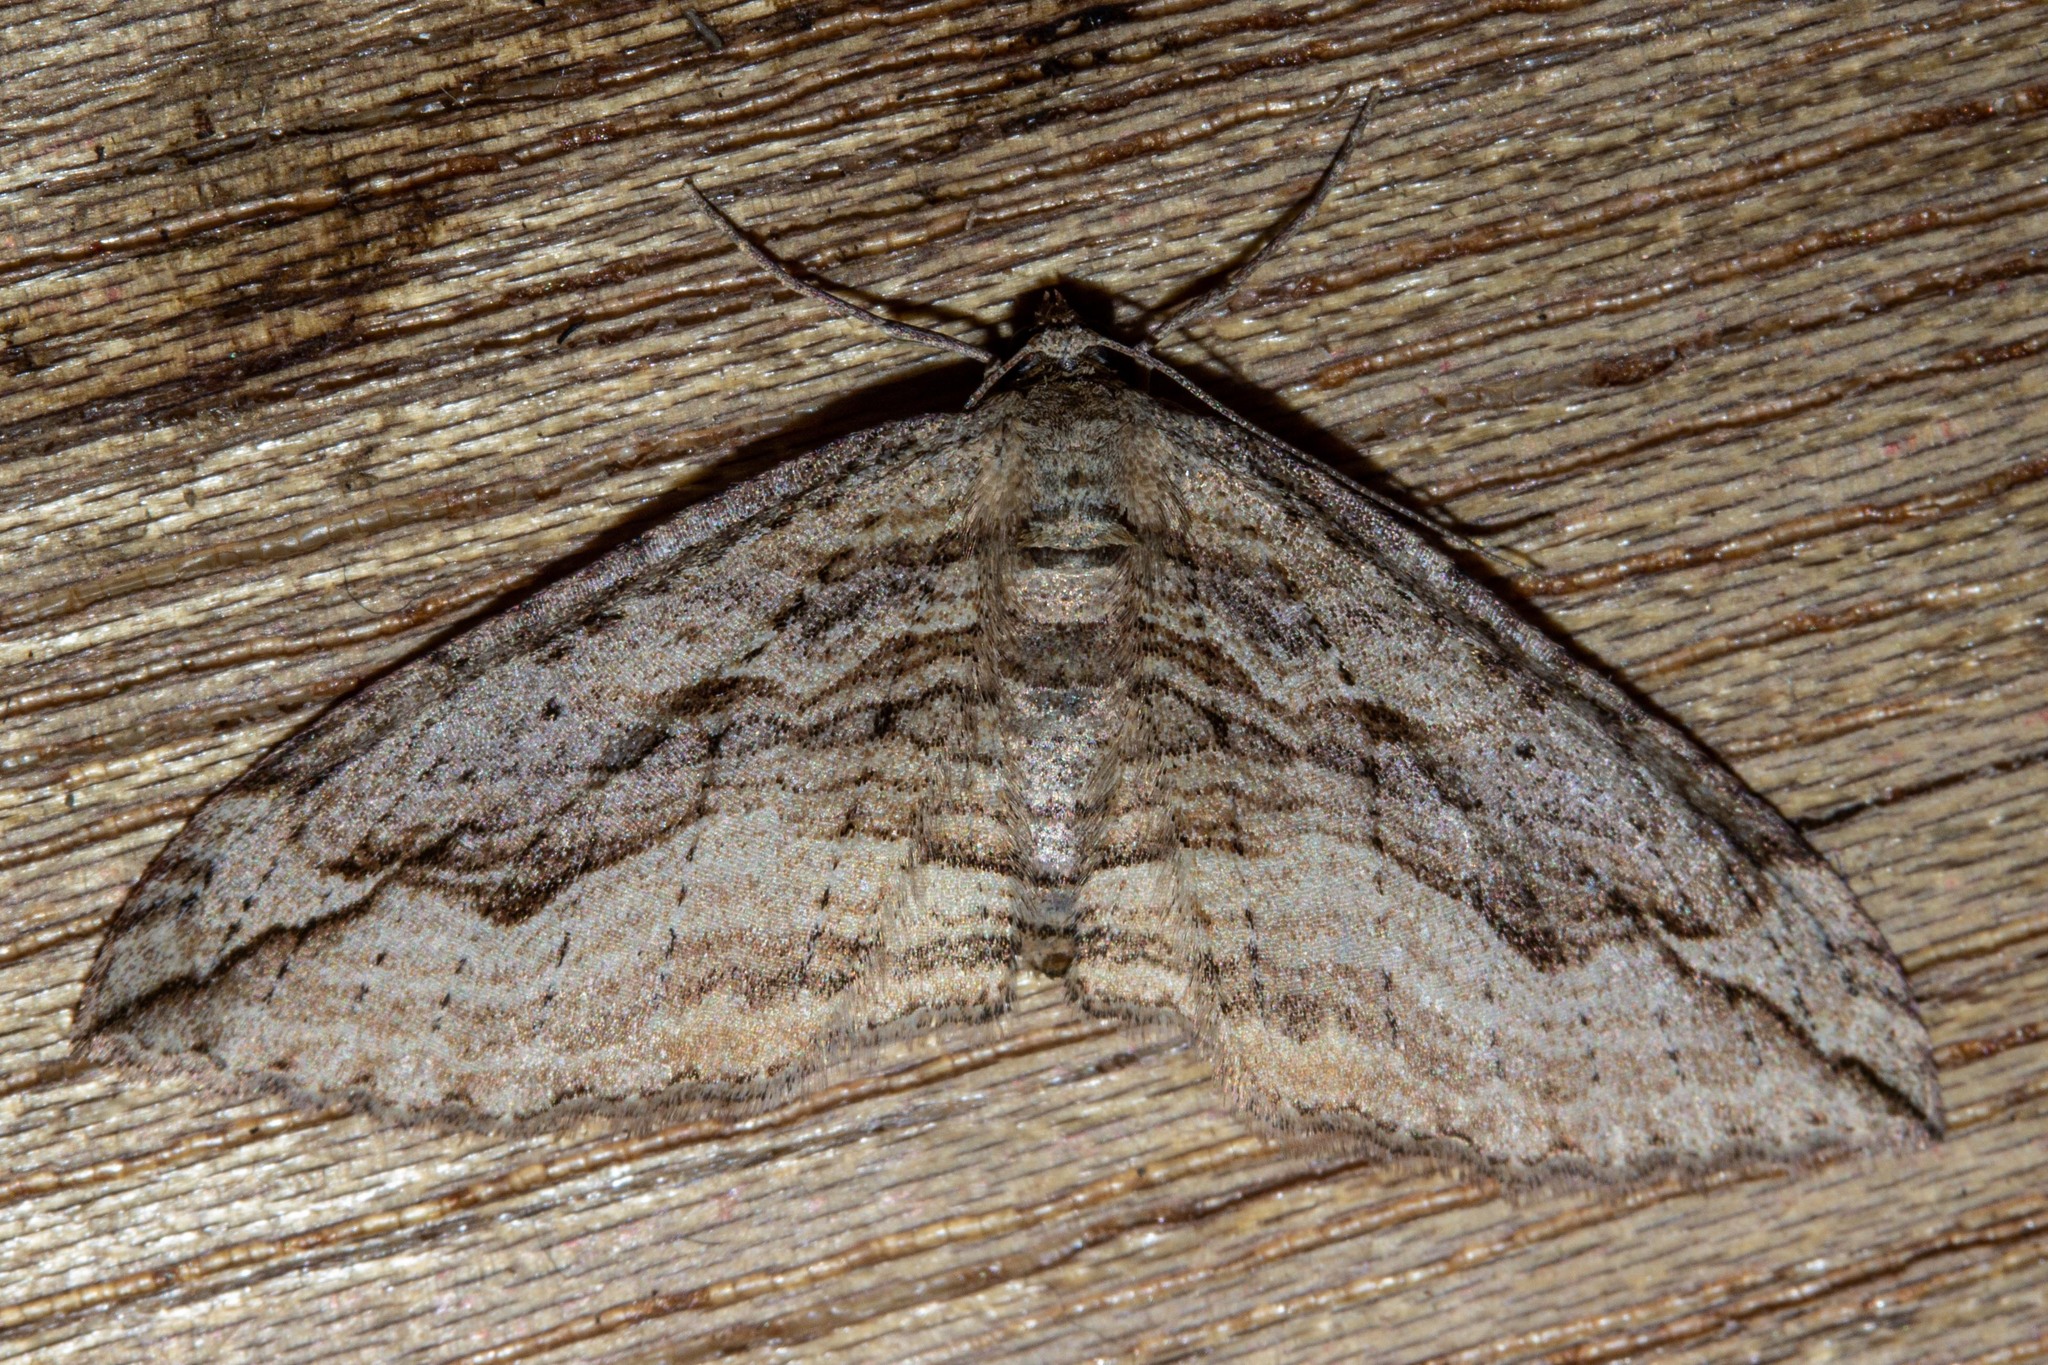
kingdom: Animalia
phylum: Arthropoda
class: Insecta
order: Lepidoptera
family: Geometridae
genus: Austrocidaria
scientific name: Austrocidaria gobiata
